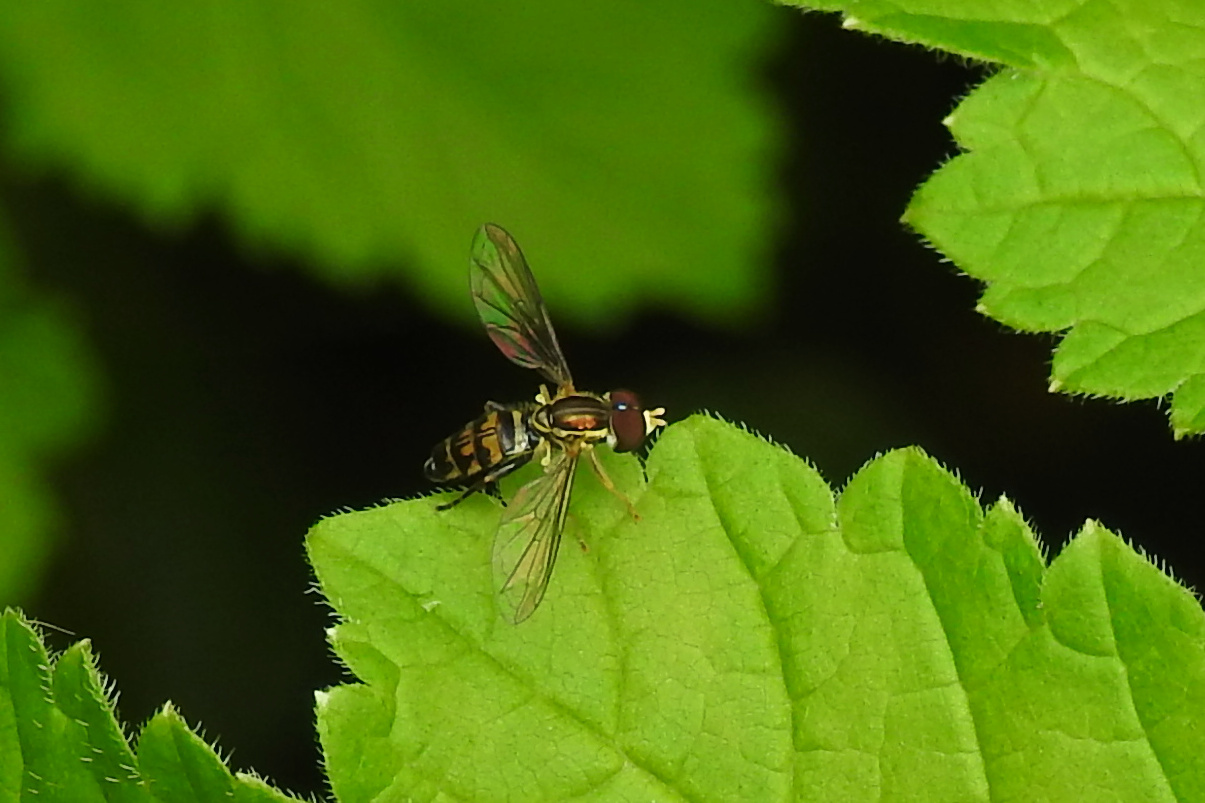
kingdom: Animalia
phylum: Arthropoda
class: Insecta
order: Diptera
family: Syrphidae
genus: Toxomerus
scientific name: Toxomerus geminatus
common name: Eastern calligrapher
